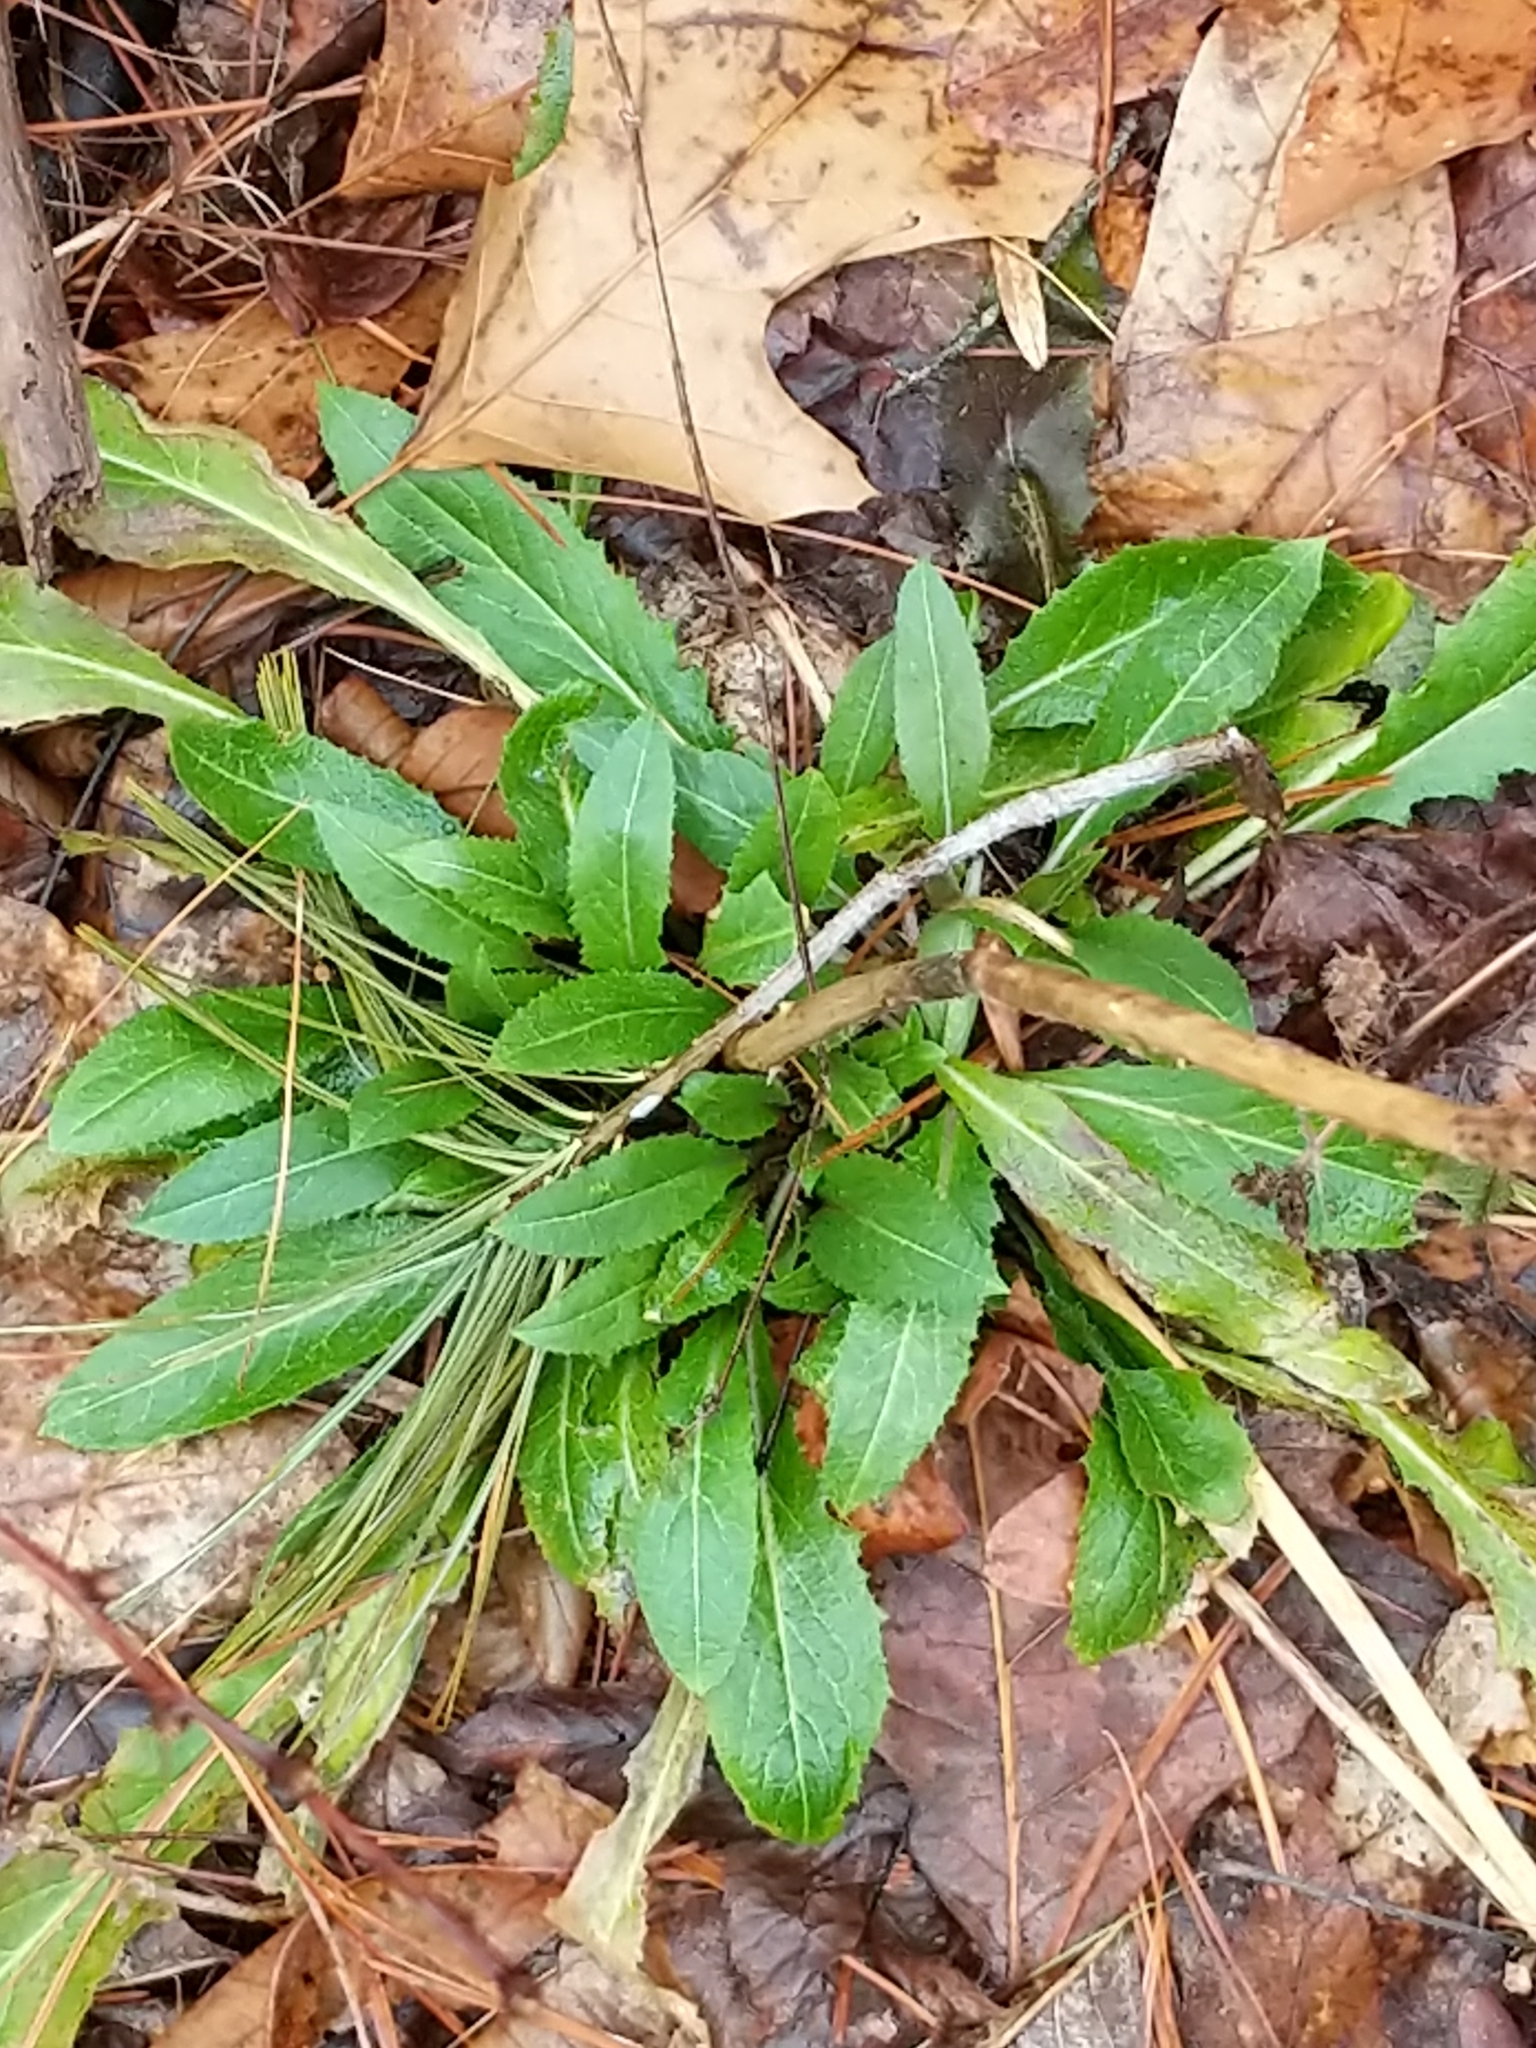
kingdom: Plantae
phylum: Tracheophyta
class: Magnoliopsida
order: Brassicales
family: Brassicaceae
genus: Hesperis
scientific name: Hesperis matronalis
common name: Dame's-violet
